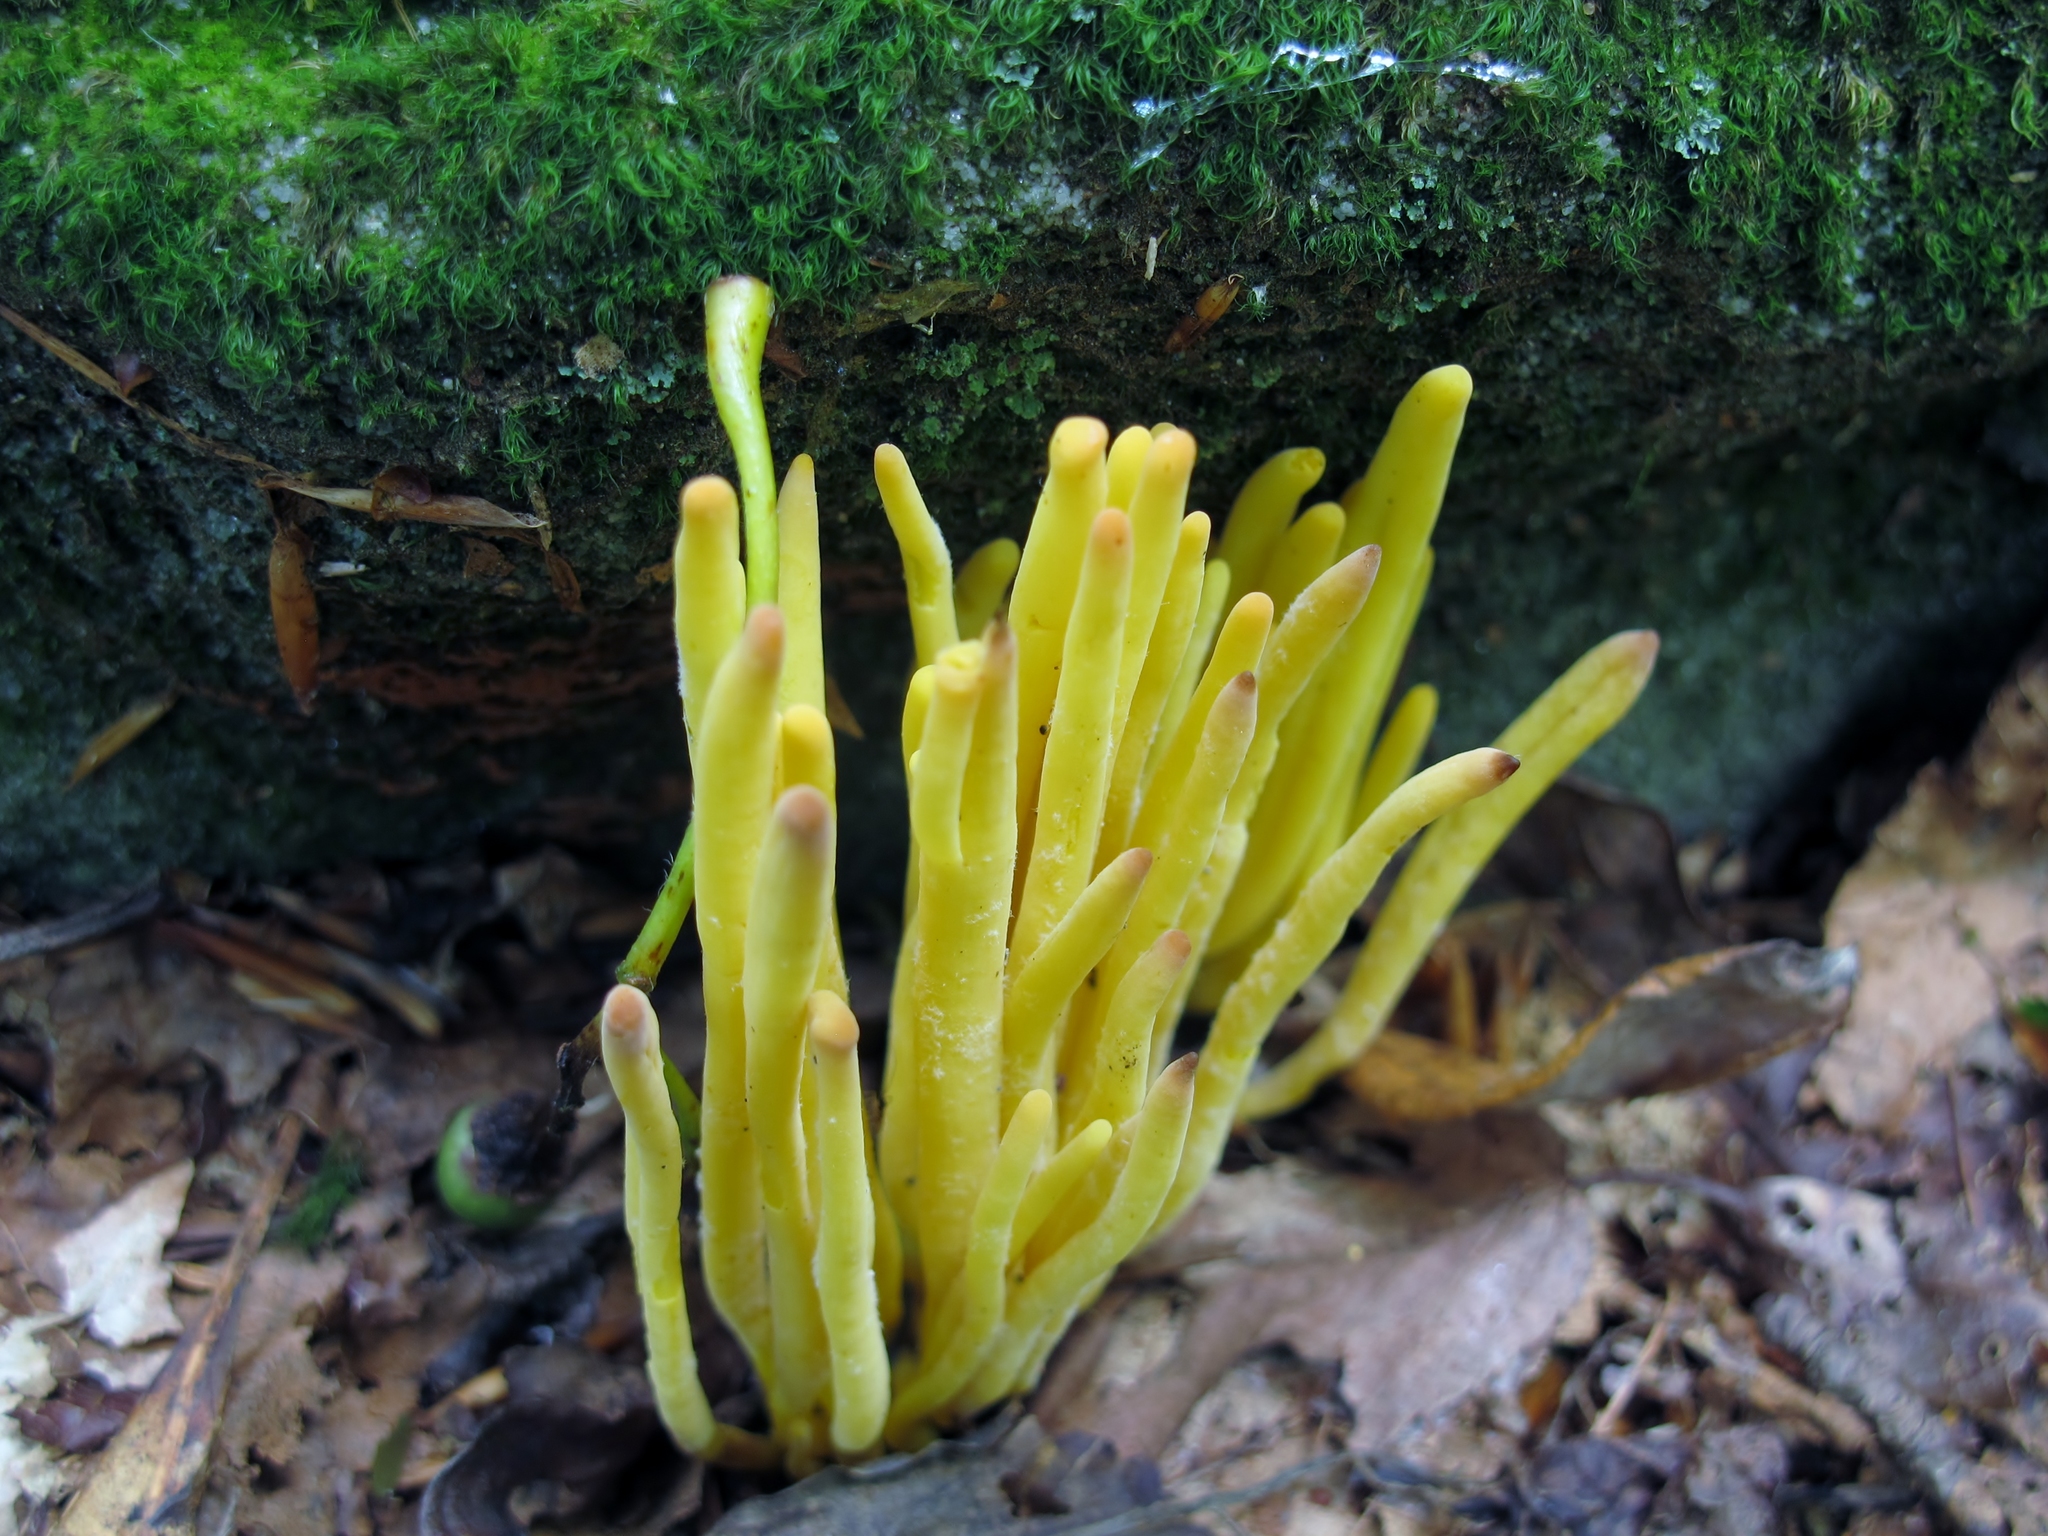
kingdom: Fungi
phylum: Basidiomycota
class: Agaricomycetes
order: Agaricales
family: Clavariaceae
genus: Clavulinopsis
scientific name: Clavulinopsis fusiformis
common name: Golden spindles
